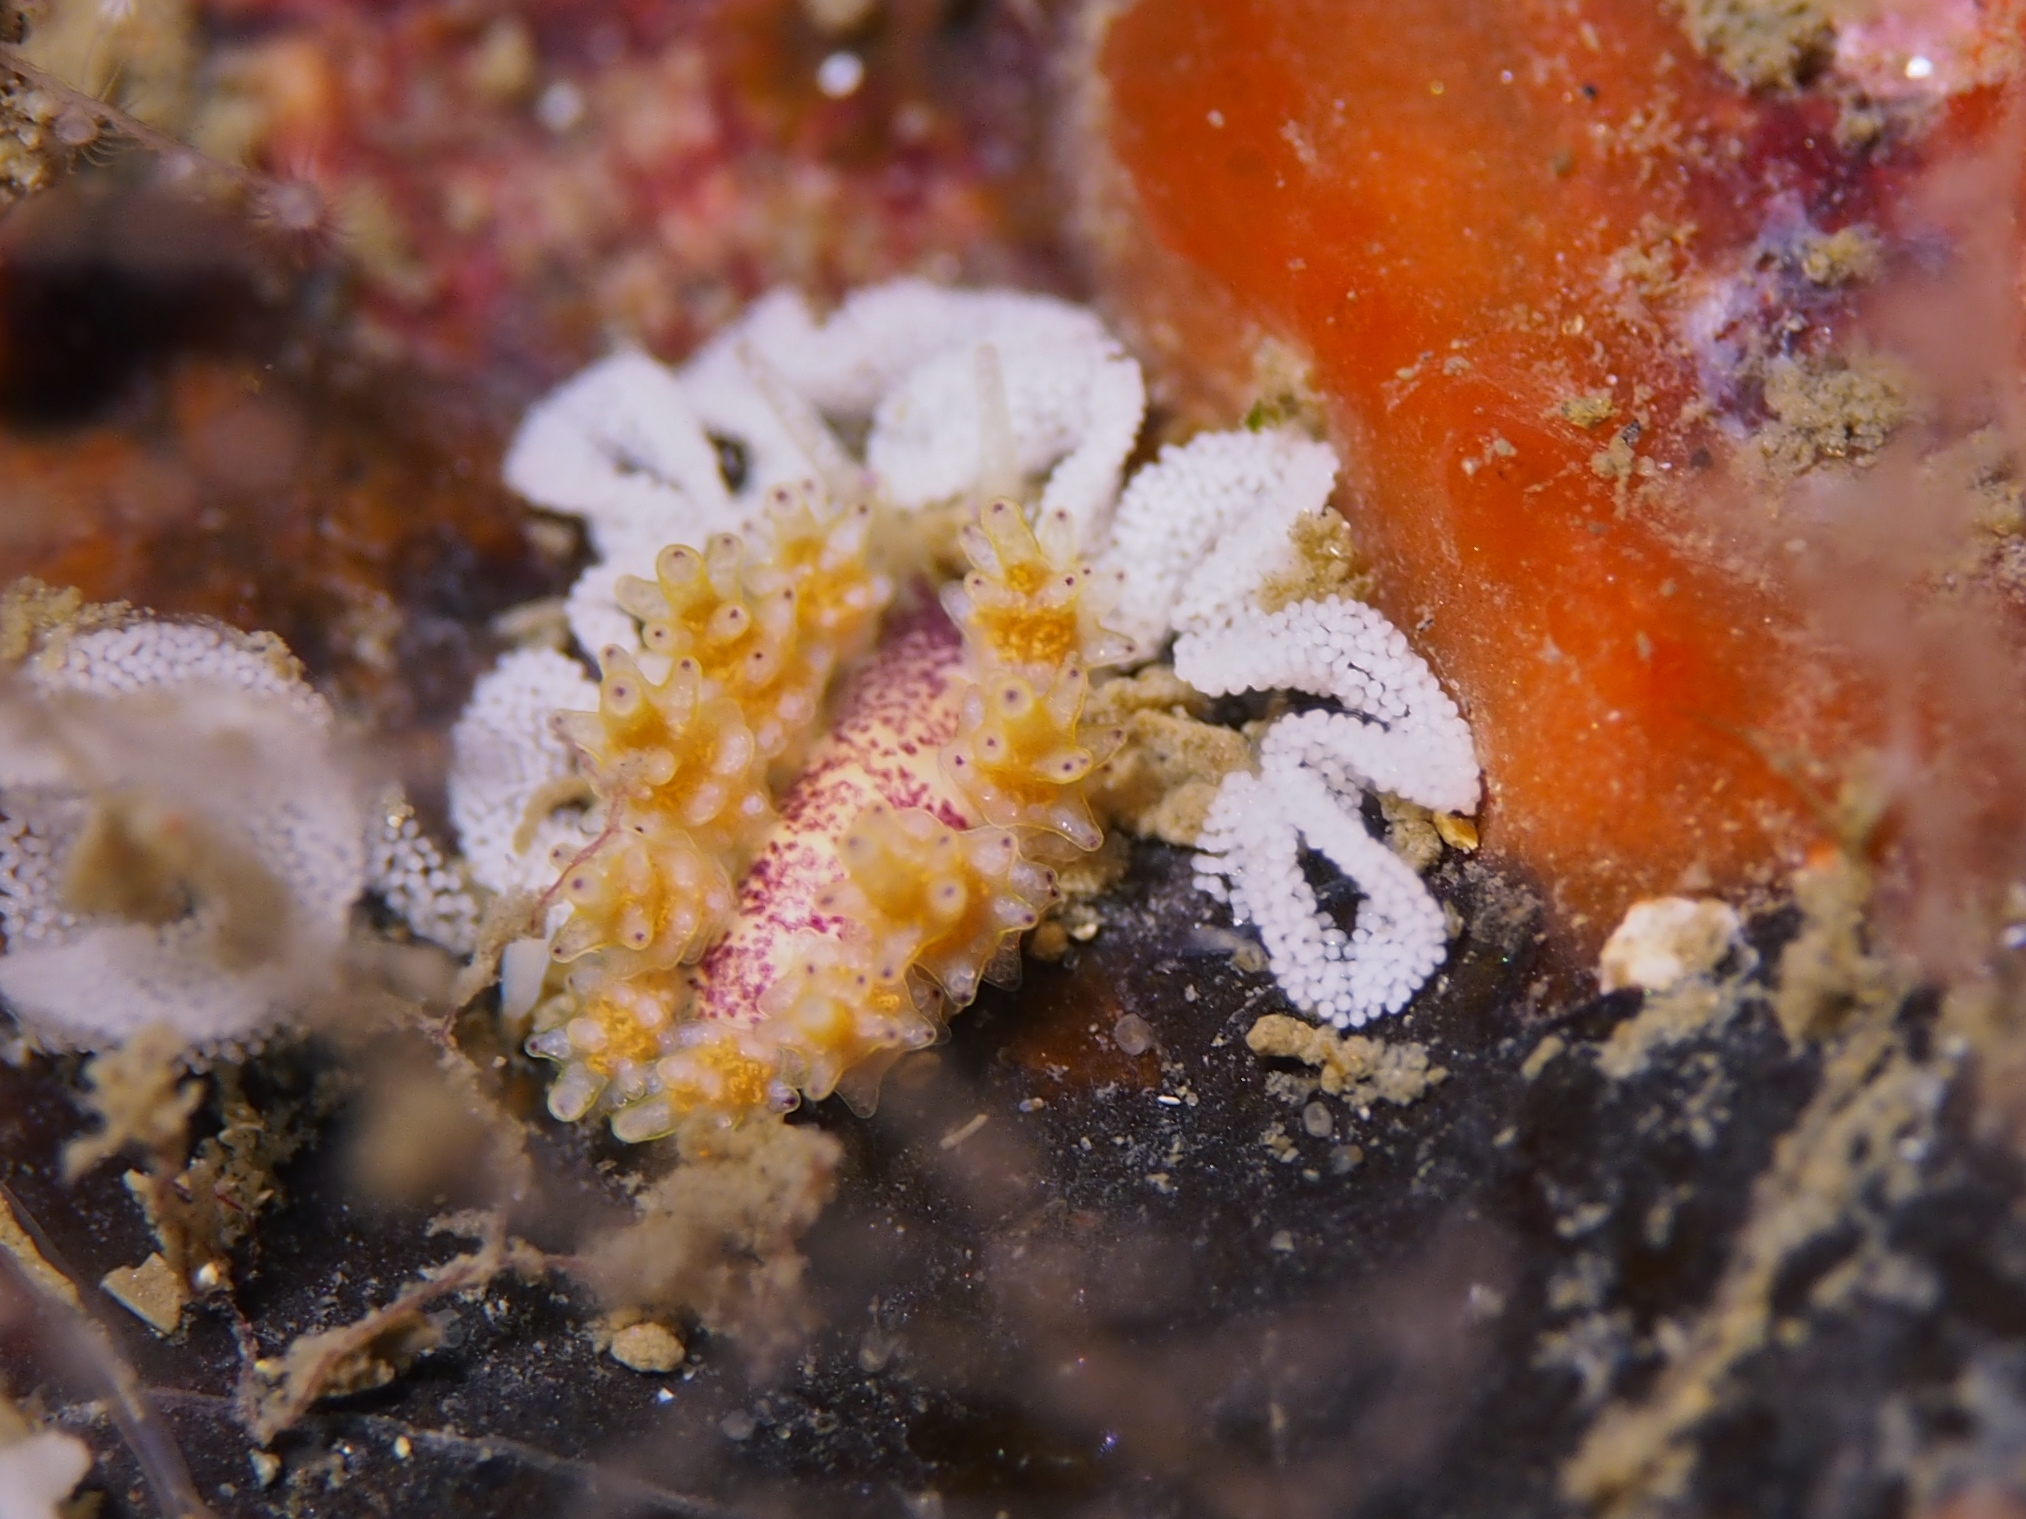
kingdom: Animalia
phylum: Mollusca
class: Gastropoda
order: Nudibranchia
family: Dotidae
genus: Doto
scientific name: Doto dunnei
